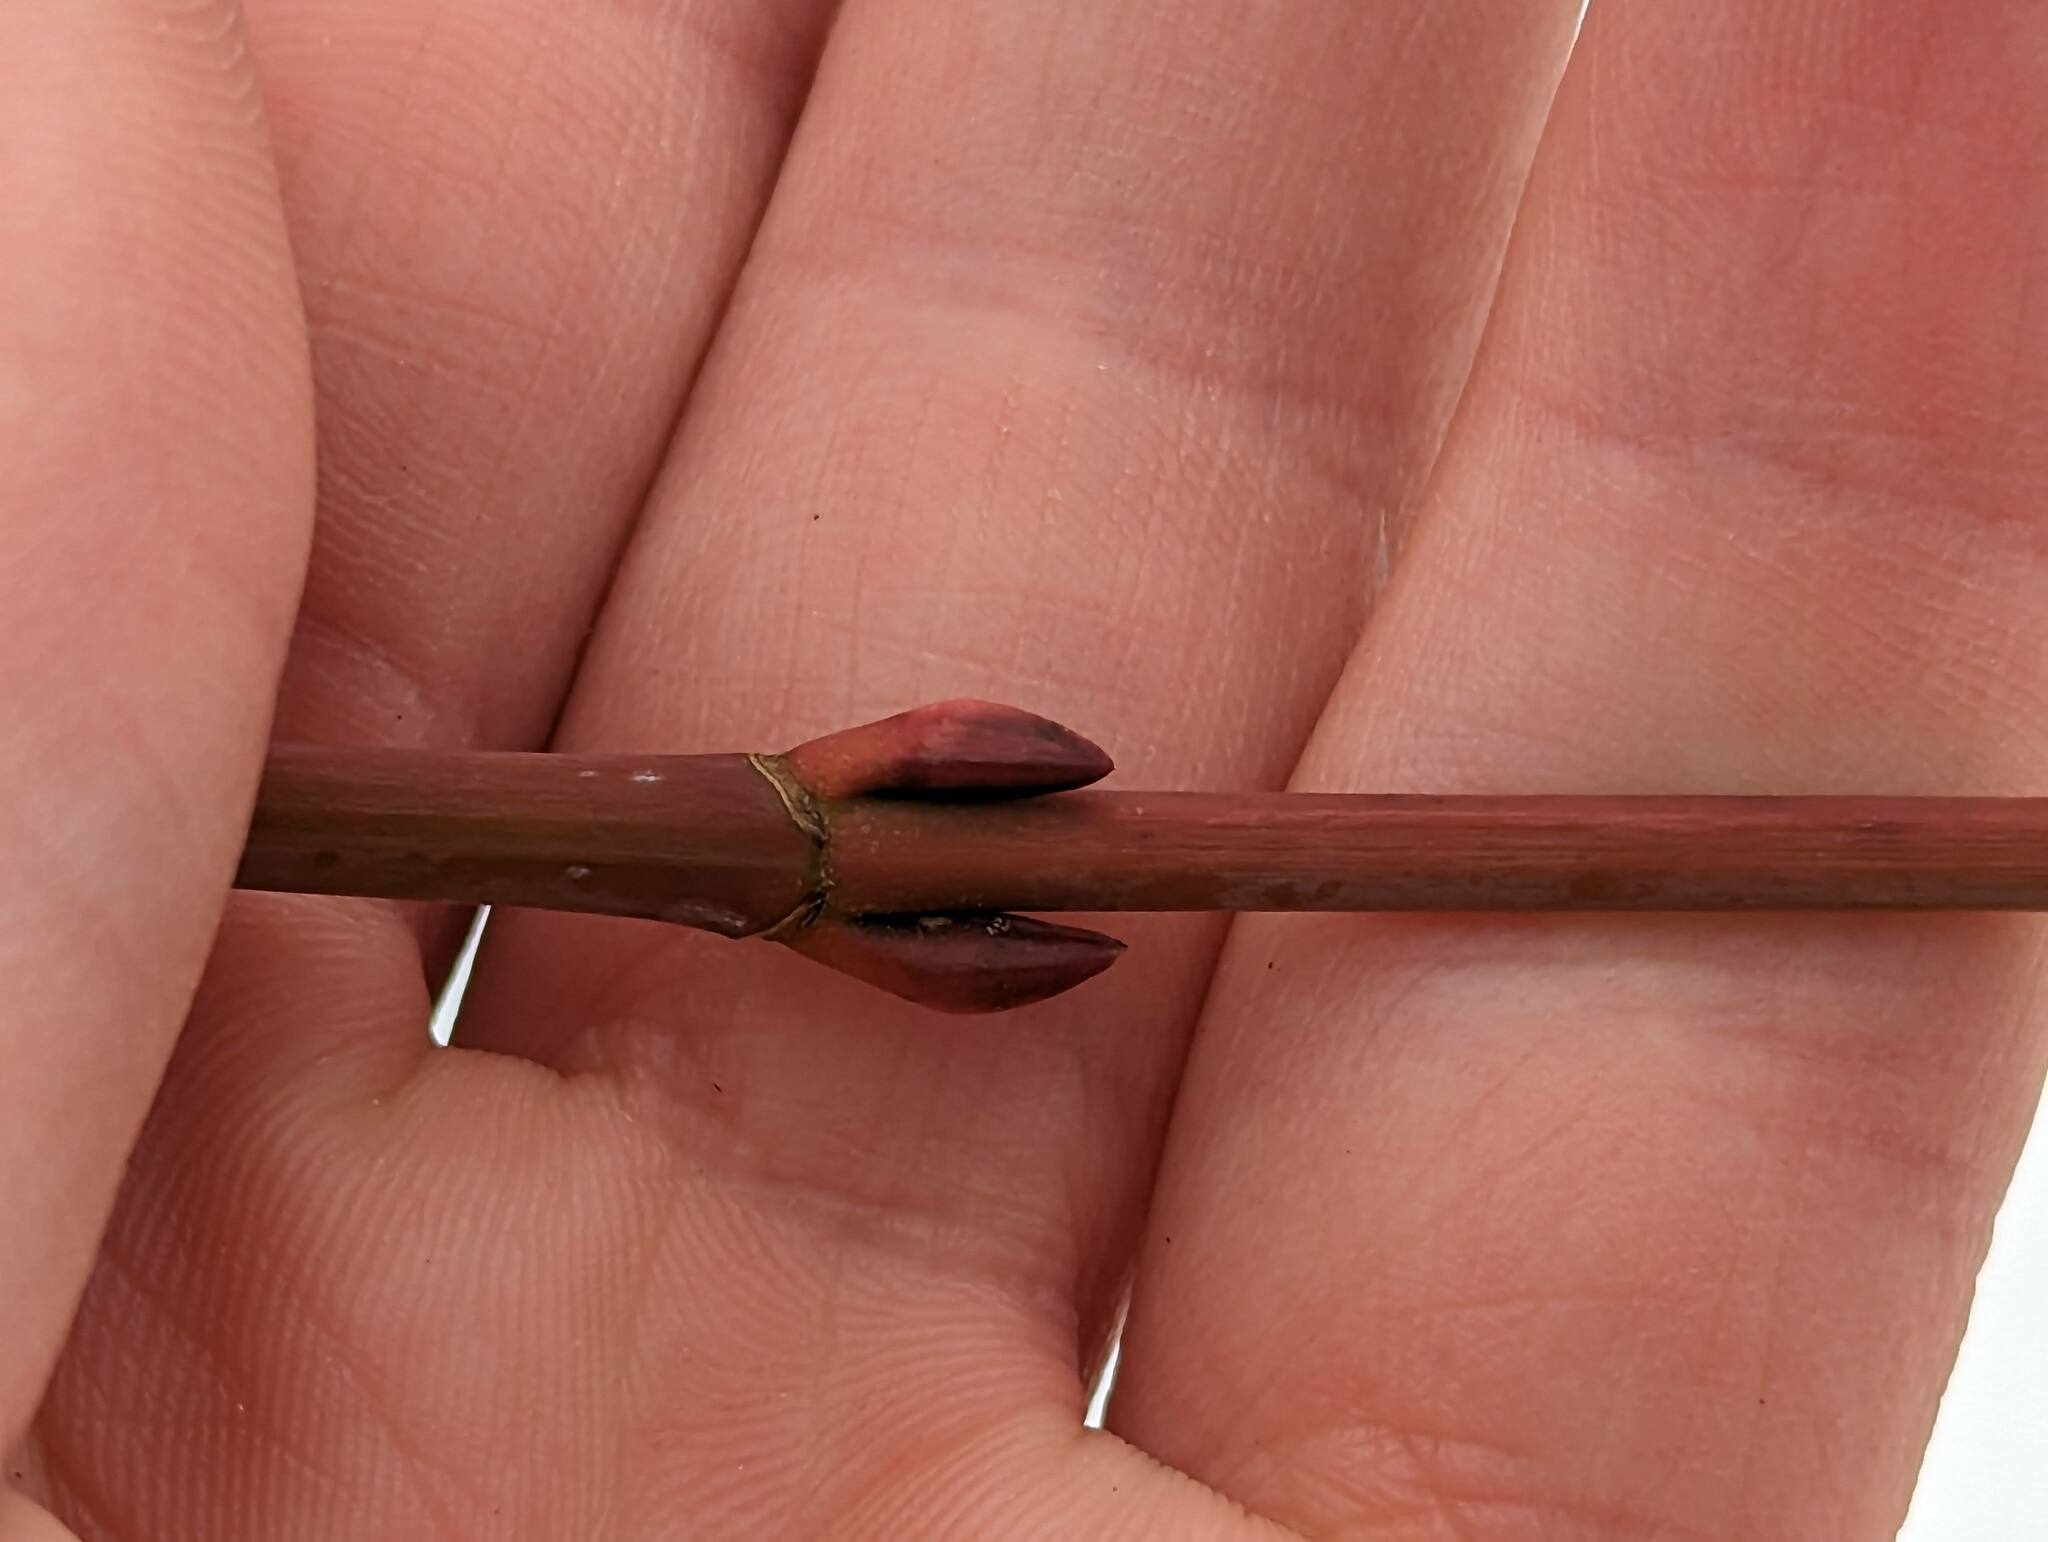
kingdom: Plantae
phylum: Tracheophyta
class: Magnoliopsida
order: Sapindales
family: Sapindaceae
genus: Acer
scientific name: Acer pensylvanicum
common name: Moosewood
